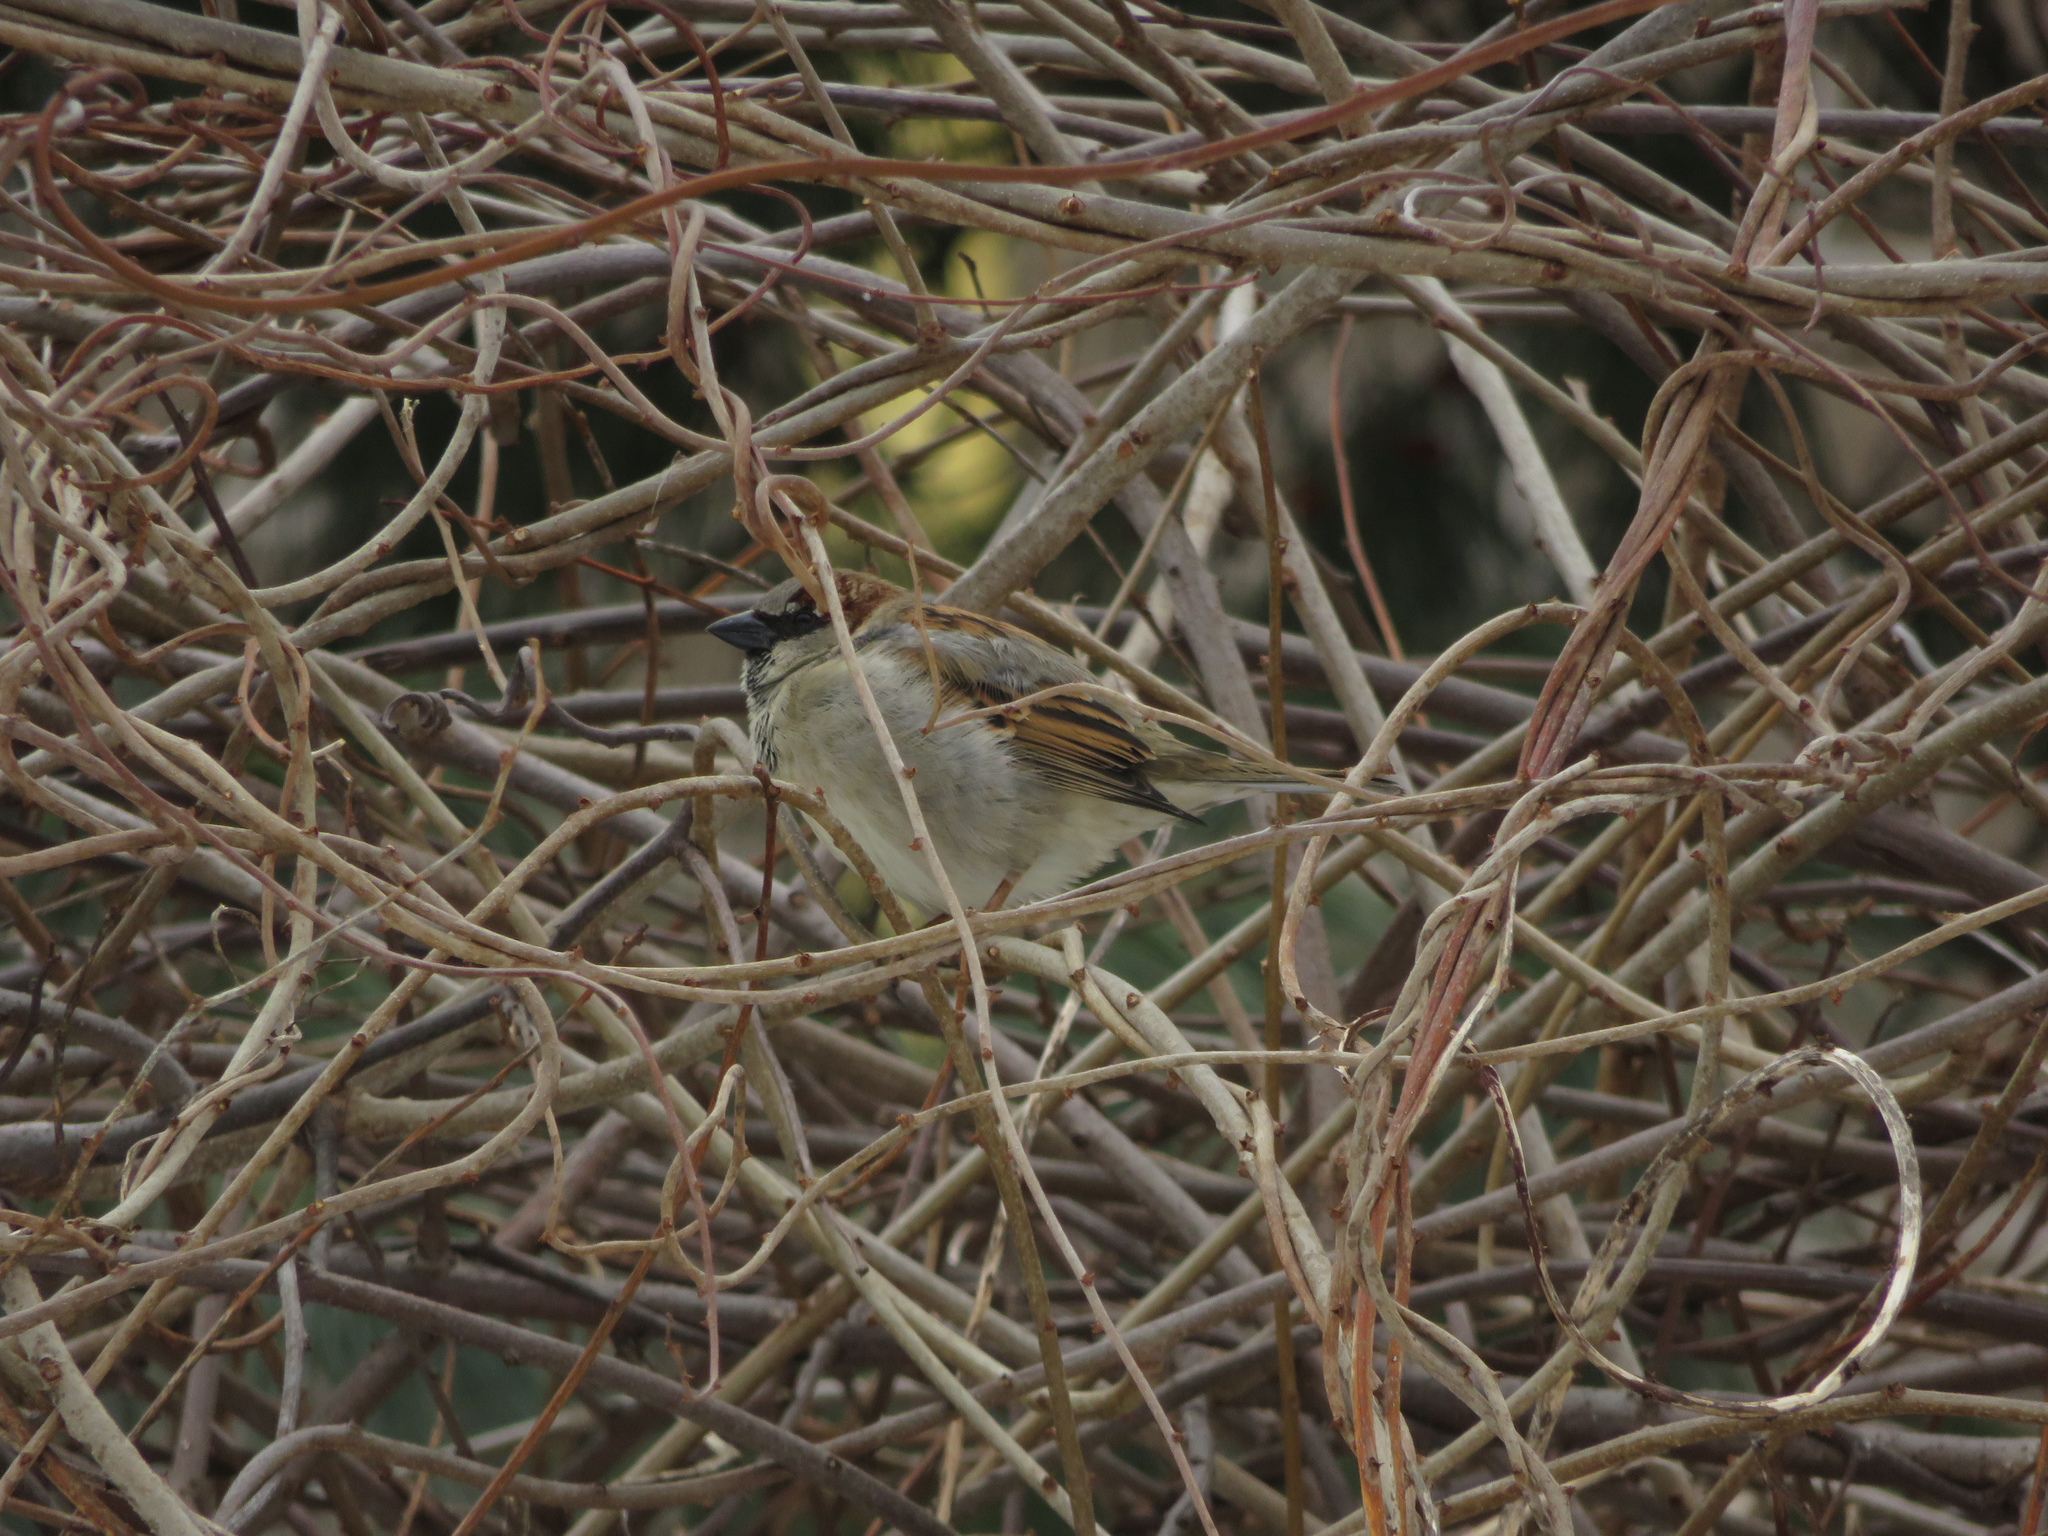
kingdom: Animalia
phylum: Chordata
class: Aves
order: Passeriformes
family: Passeridae
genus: Passer
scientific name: Passer domesticus
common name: House sparrow
